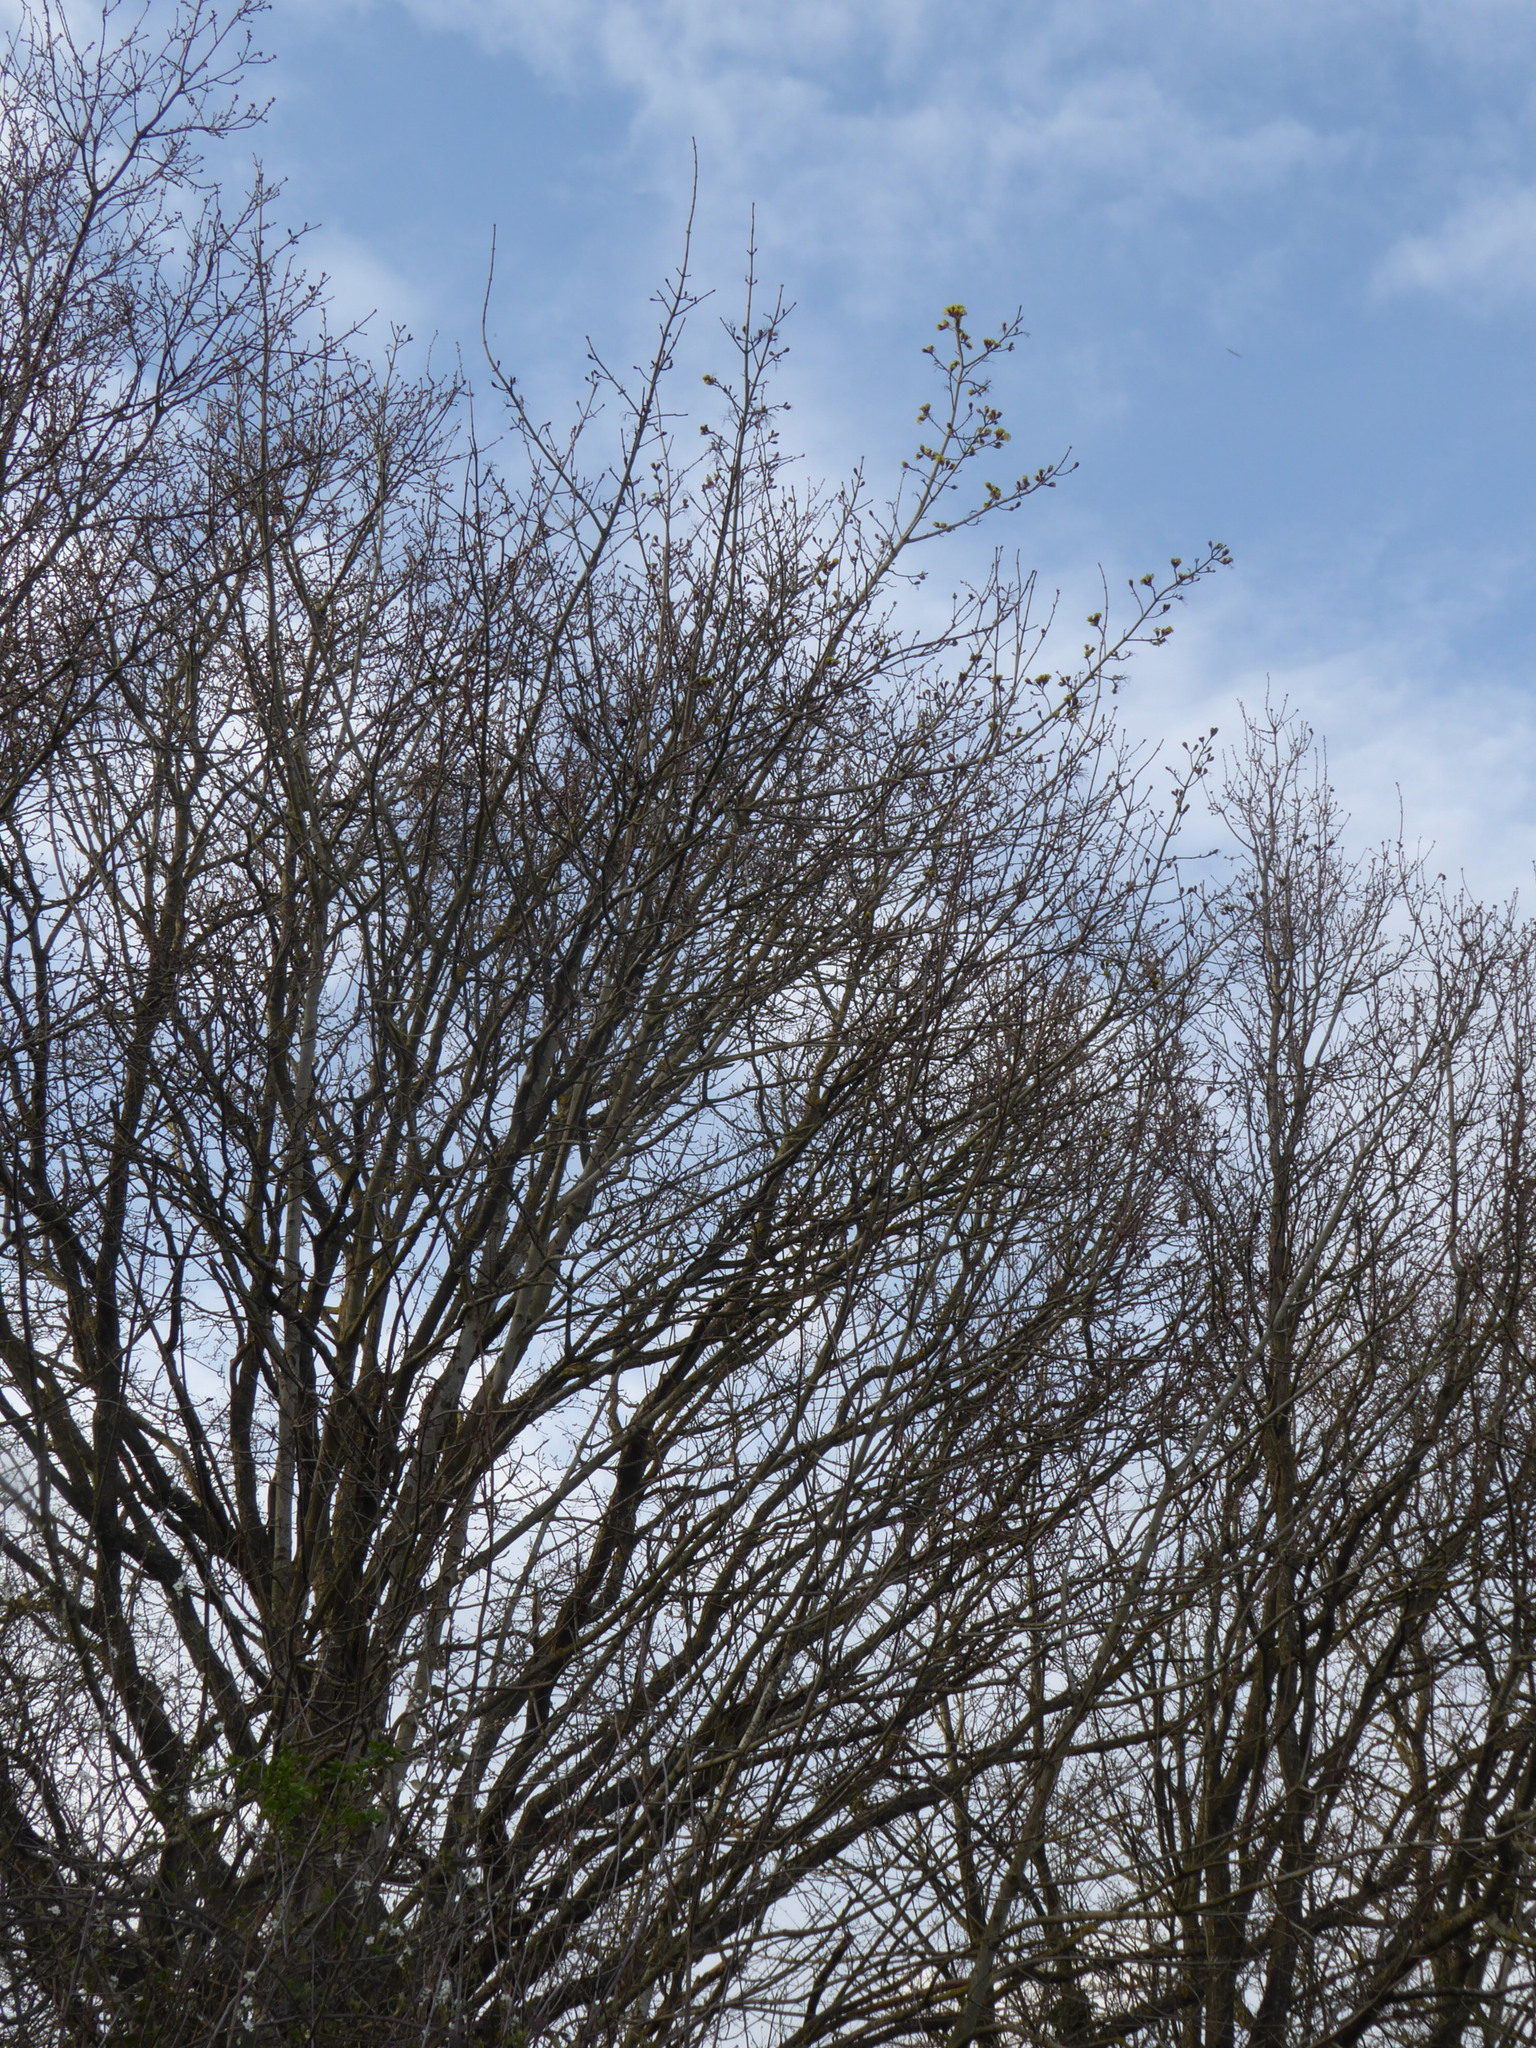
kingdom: Plantae
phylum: Tracheophyta
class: Magnoliopsida
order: Sapindales
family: Sapindaceae
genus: Acer
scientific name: Acer platanoides
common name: Norway maple
